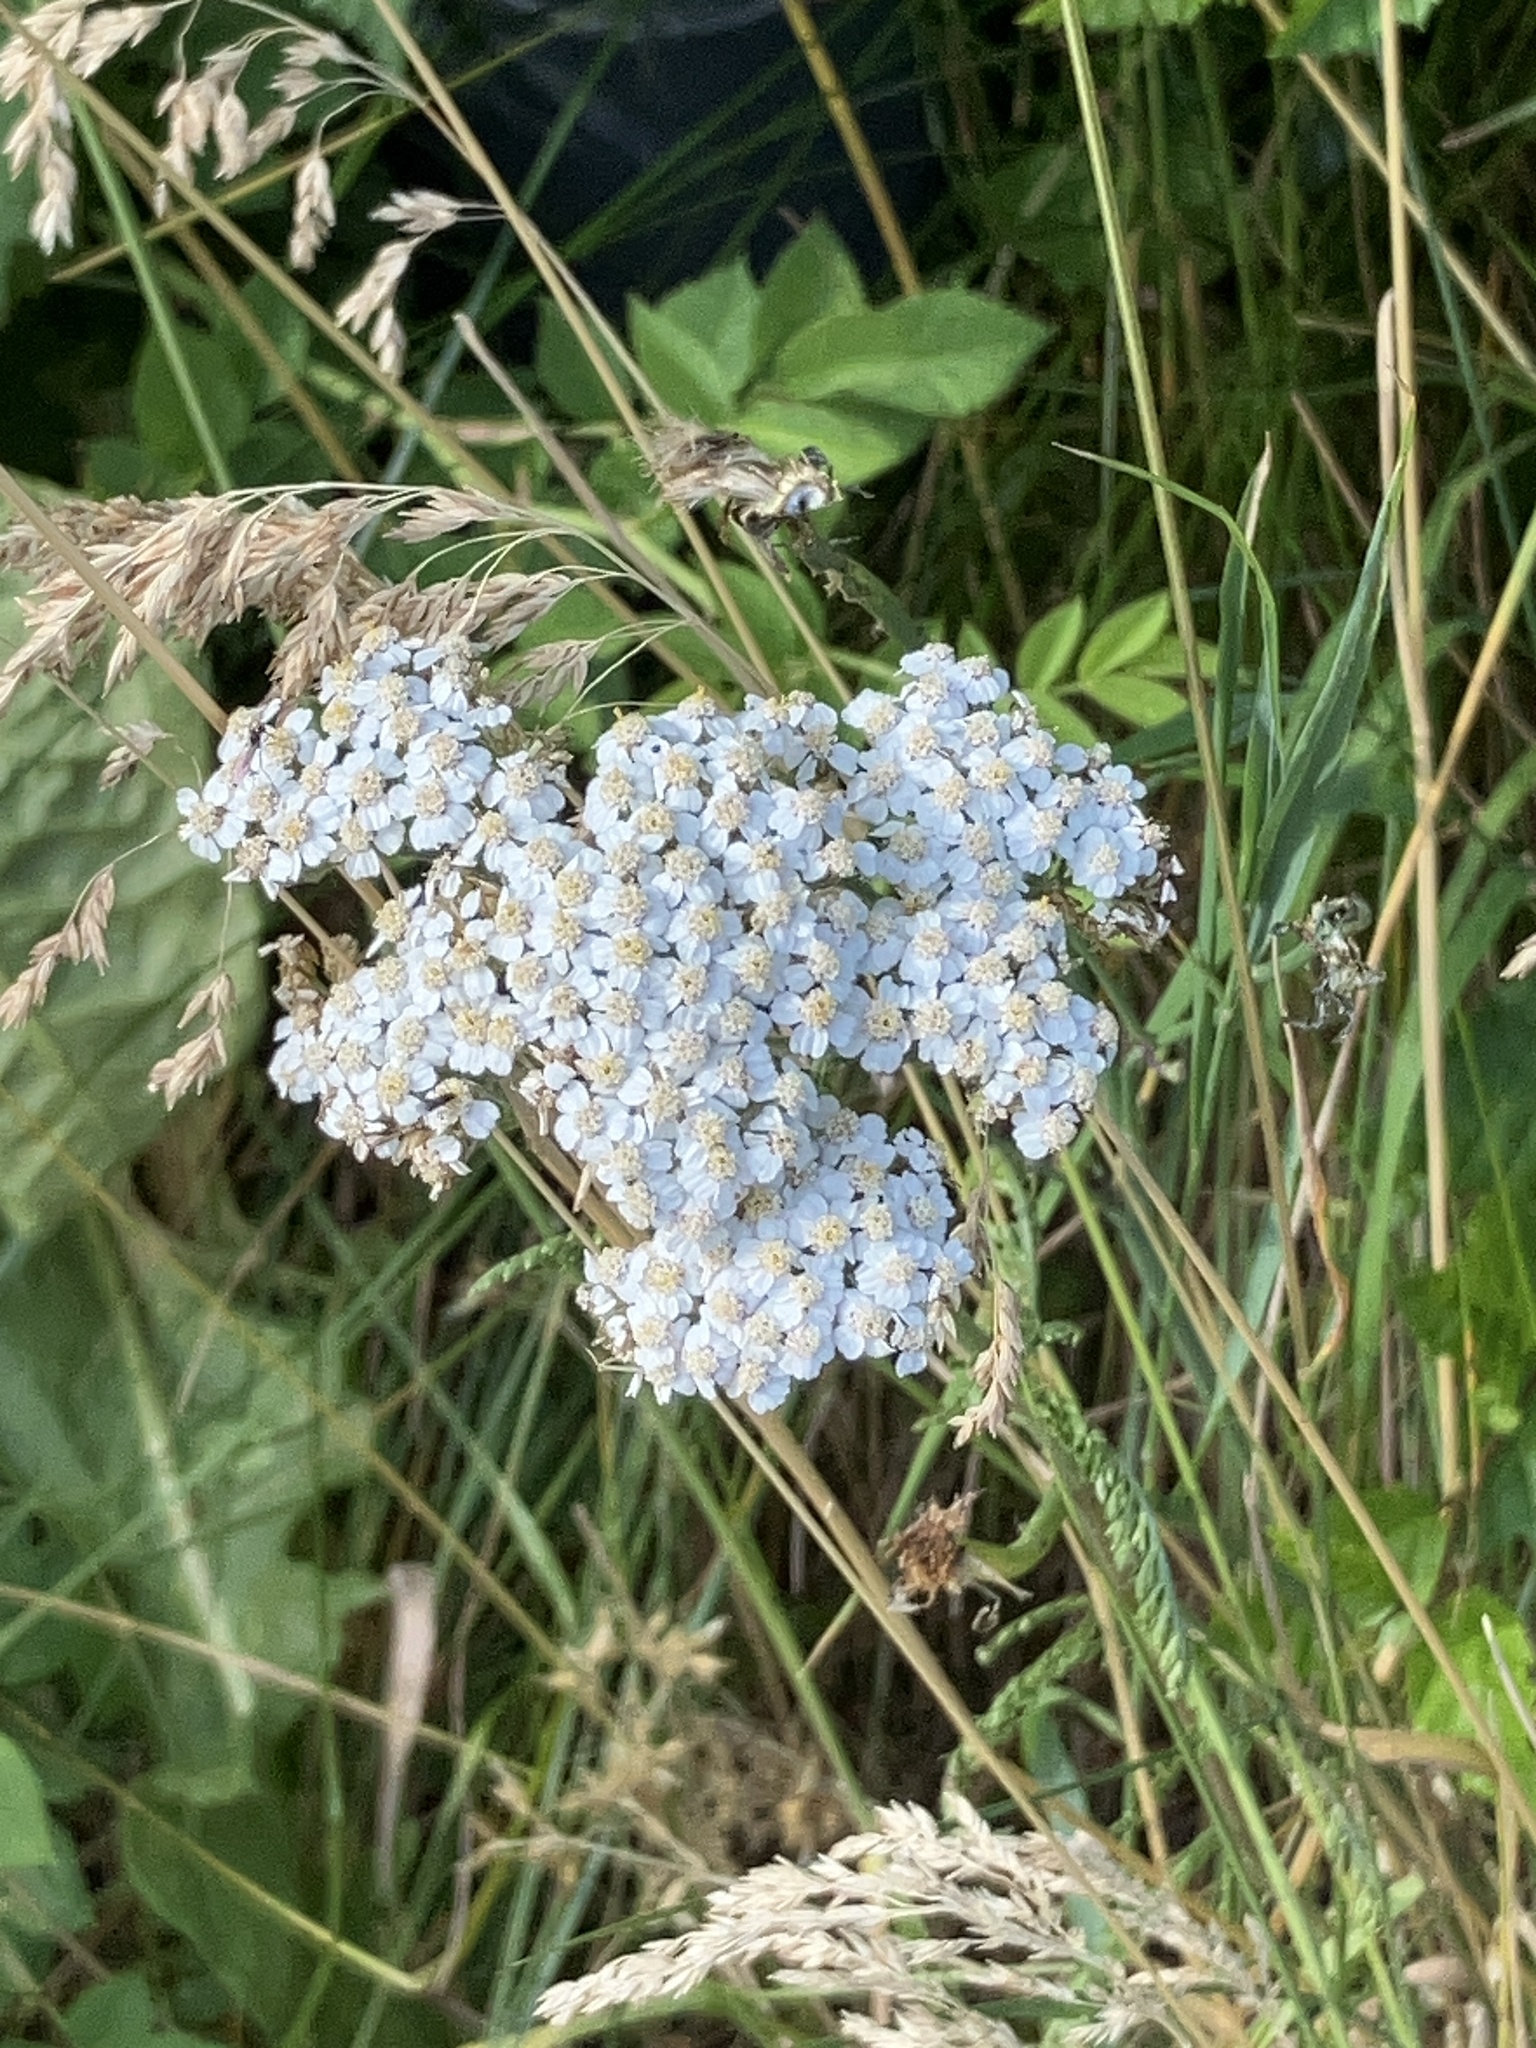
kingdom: Plantae
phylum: Tracheophyta
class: Magnoliopsida
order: Asterales
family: Asteraceae
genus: Achillea
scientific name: Achillea millefolium
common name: Yarrow
